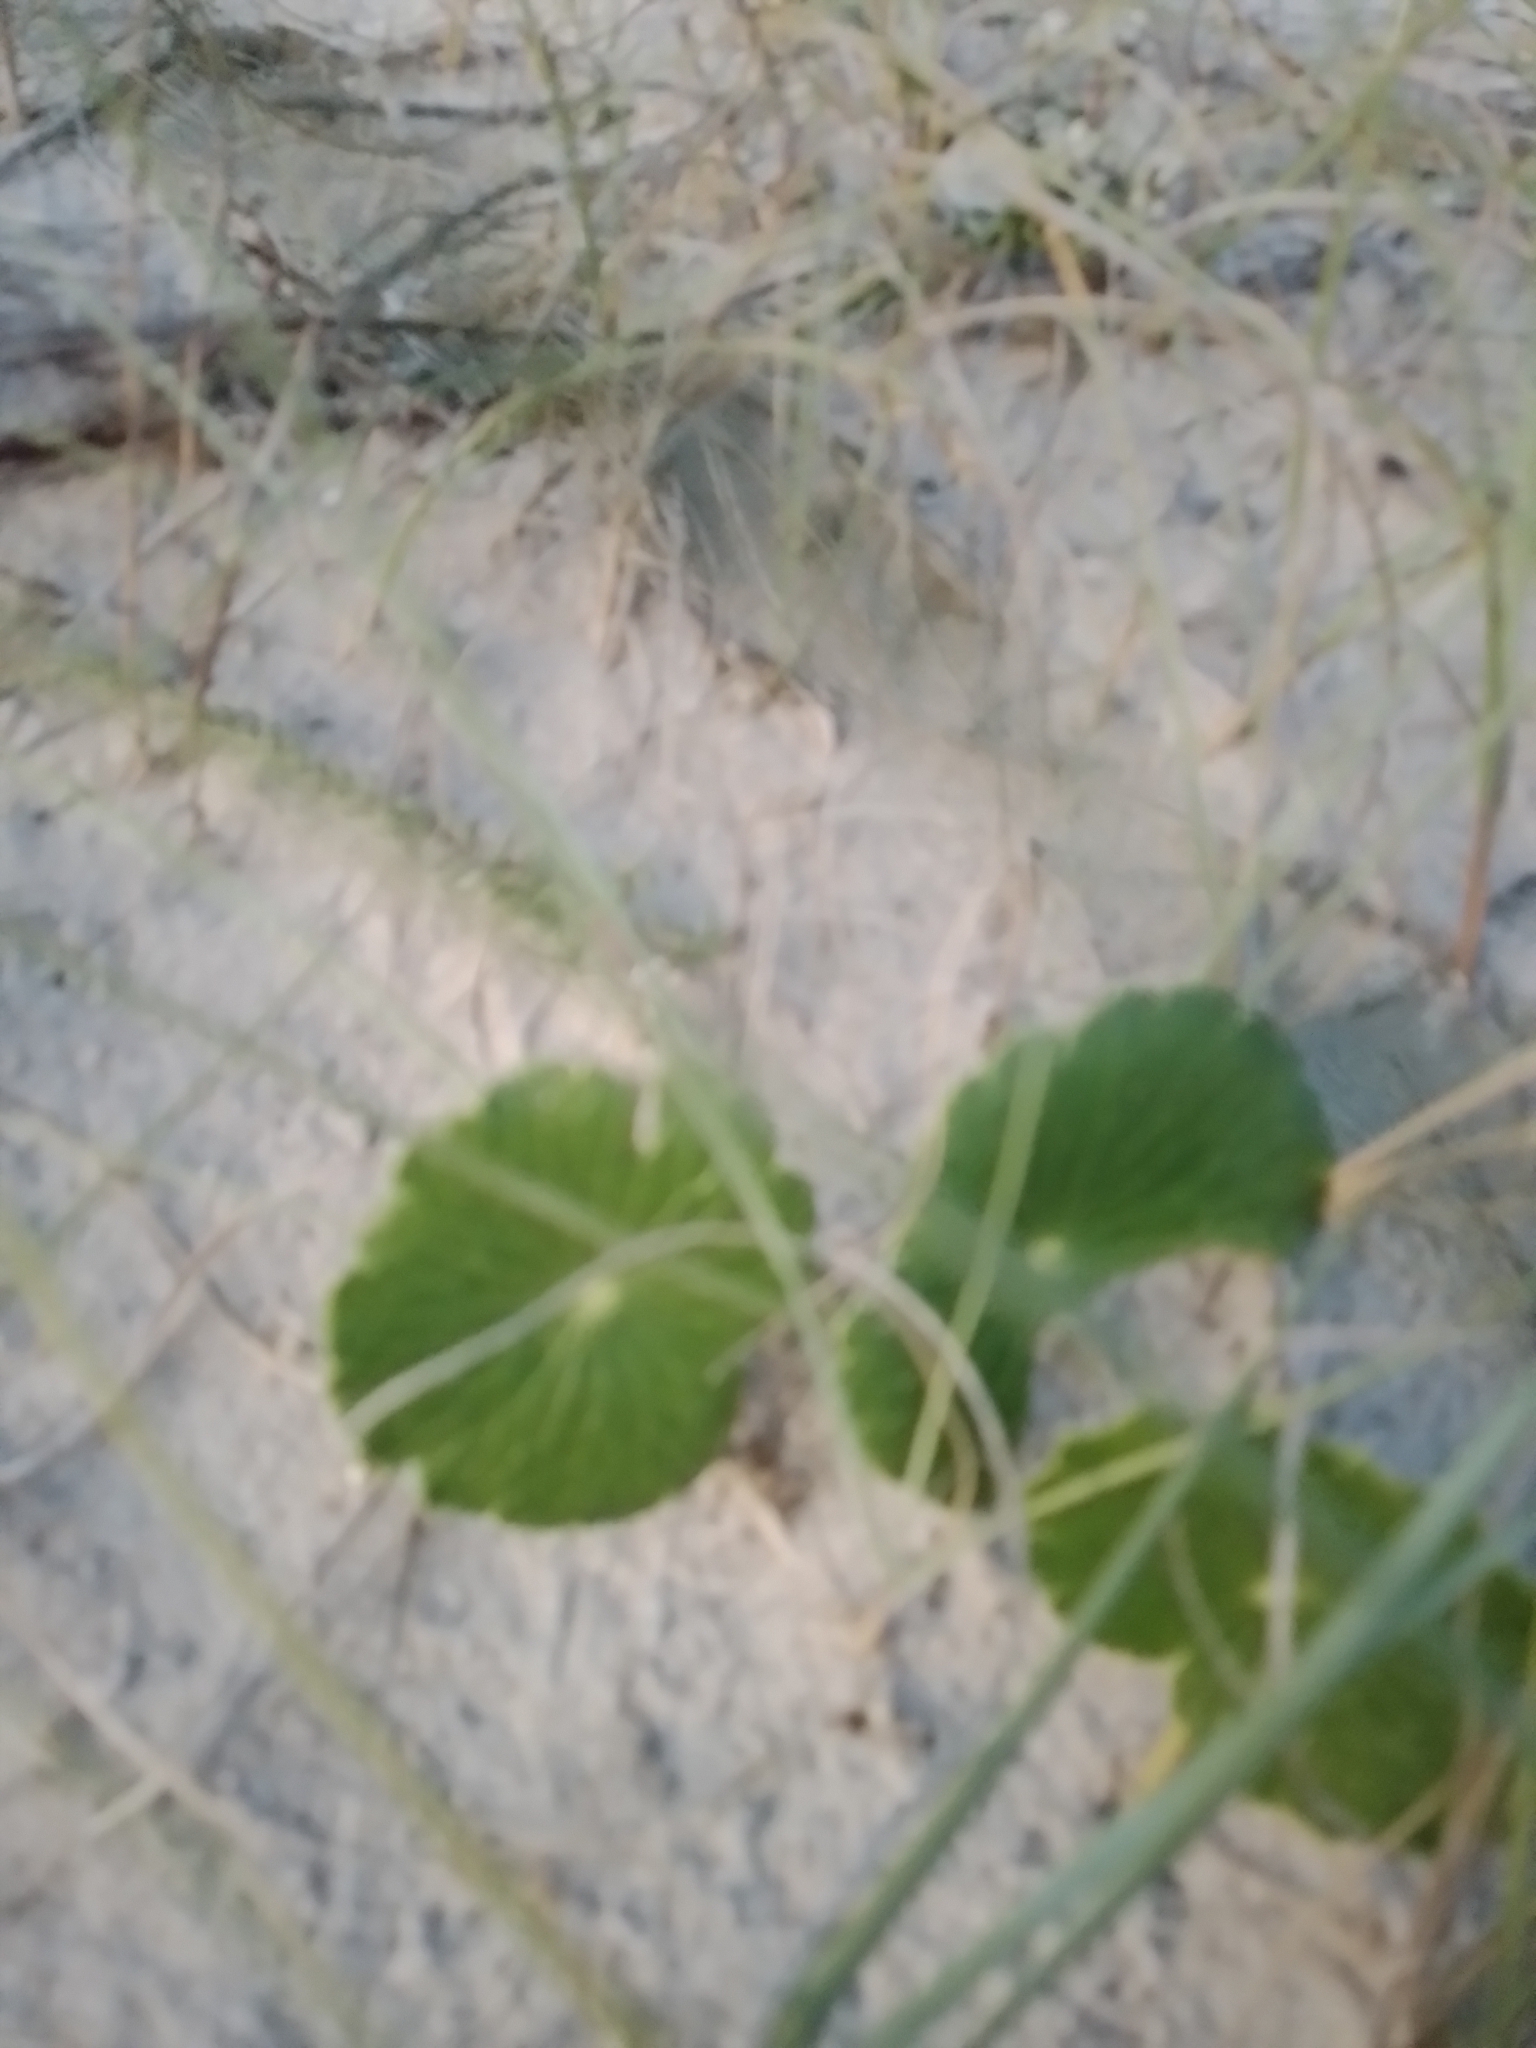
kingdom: Plantae
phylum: Tracheophyta
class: Magnoliopsida
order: Apiales
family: Araliaceae
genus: Hydrocotyle
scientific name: Hydrocotyle bonariensis
